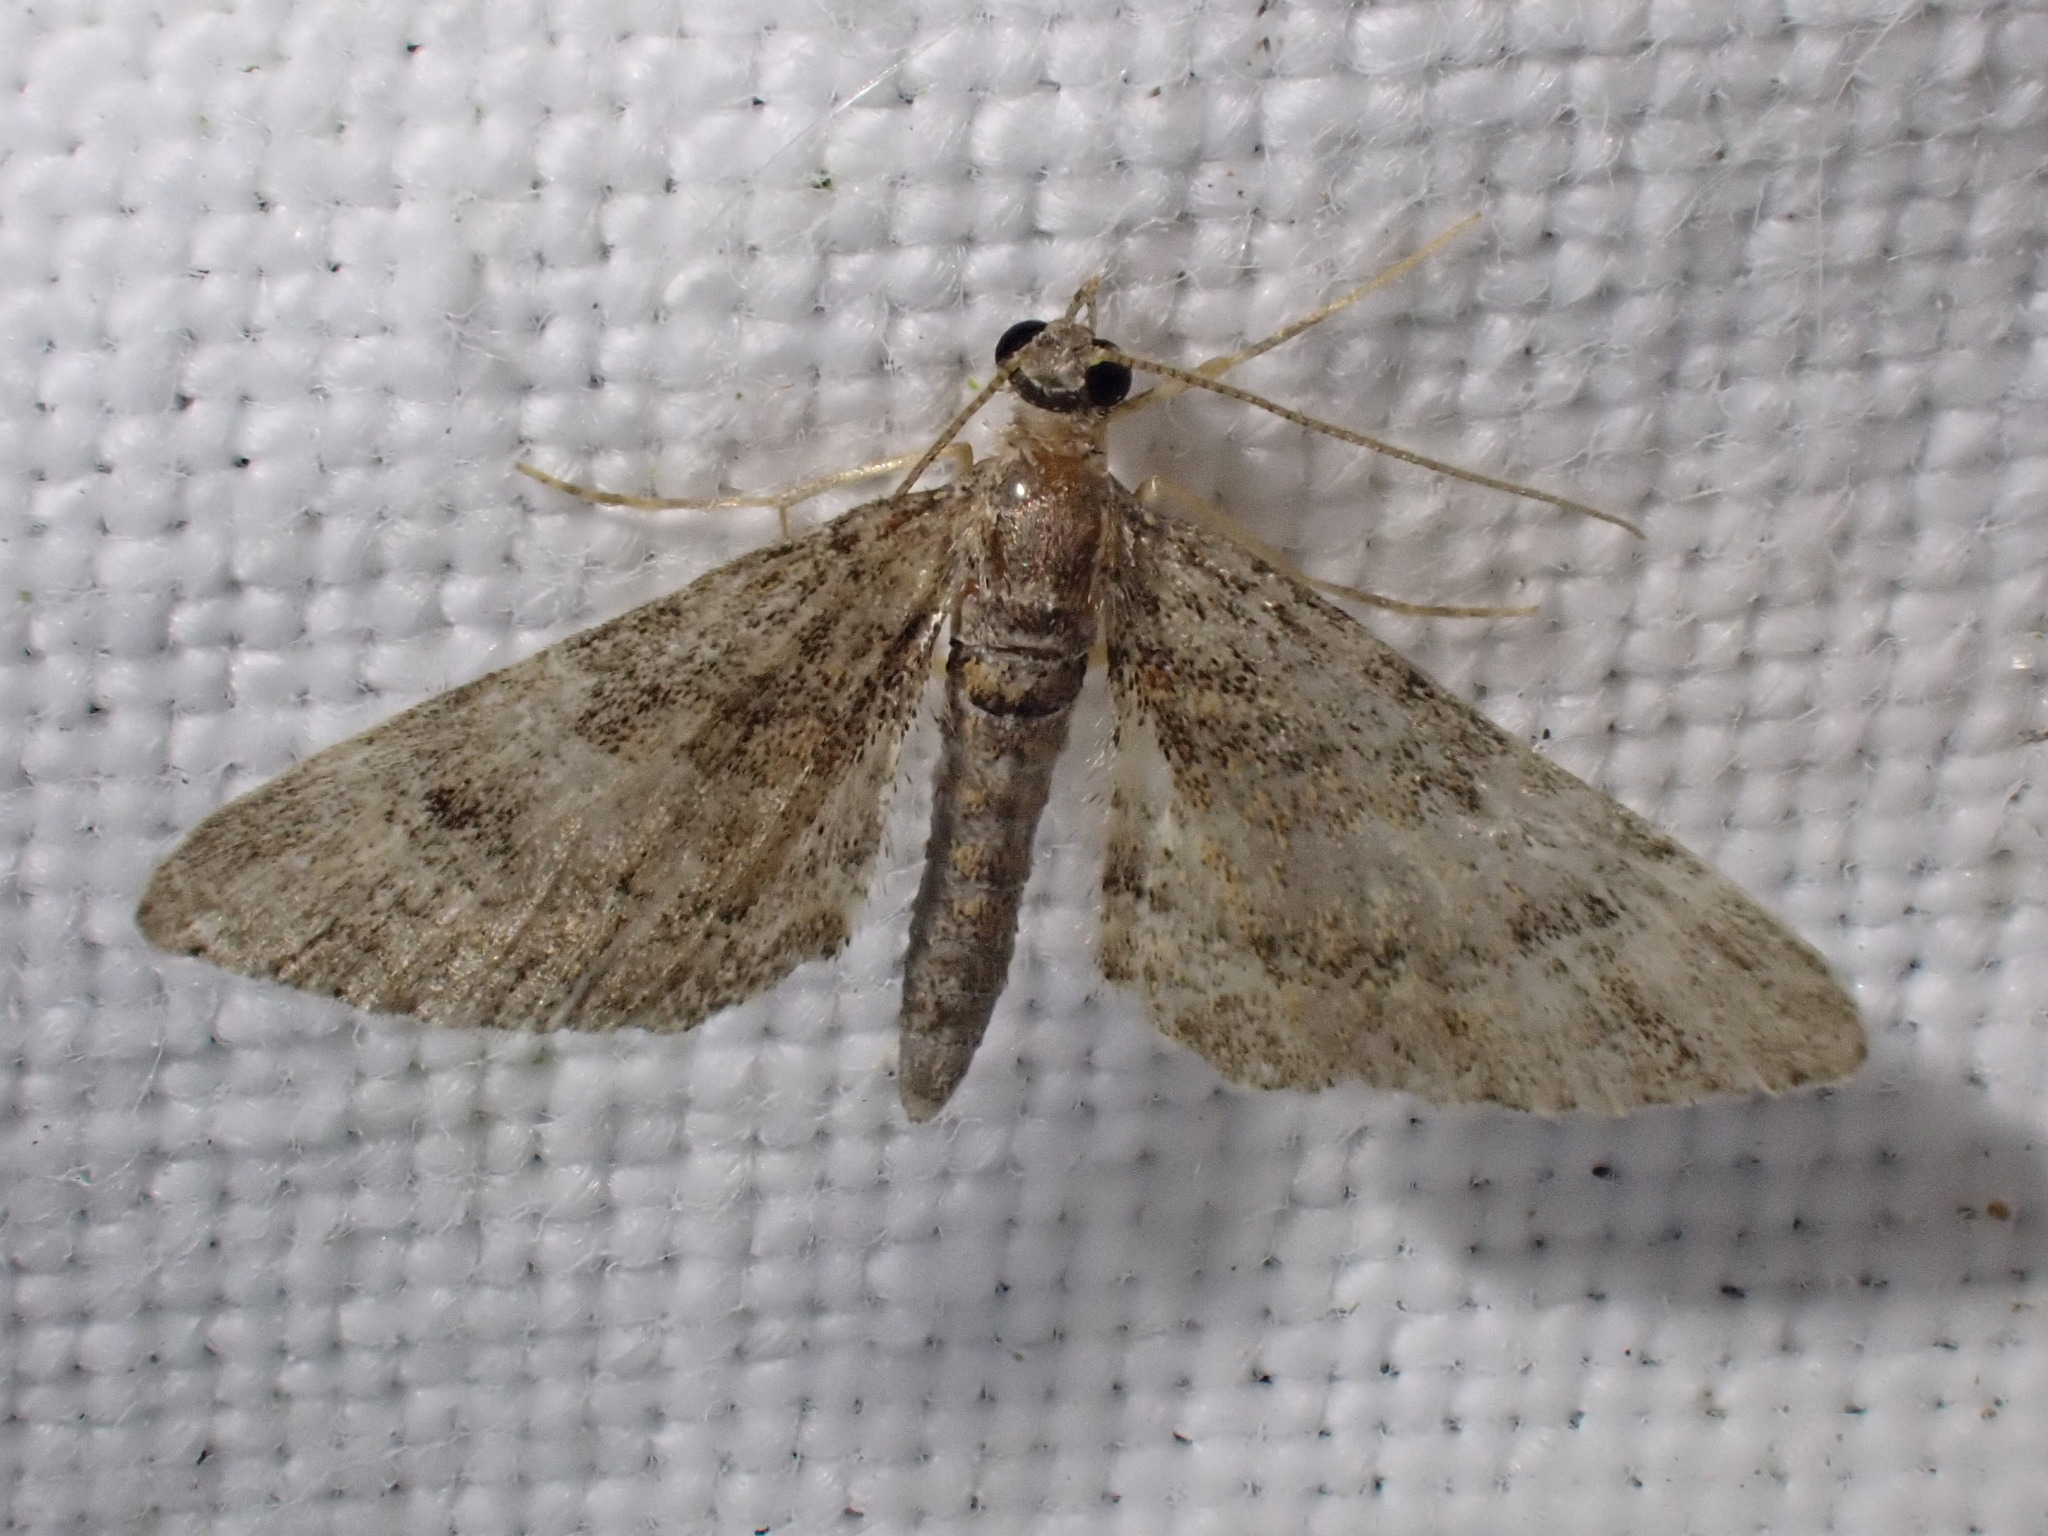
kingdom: Animalia
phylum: Arthropoda
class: Insecta
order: Lepidoptera
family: Geometridae
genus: Gymnoscelis
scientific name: Gymnoscelis rufifasciata
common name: Double-striped pug
